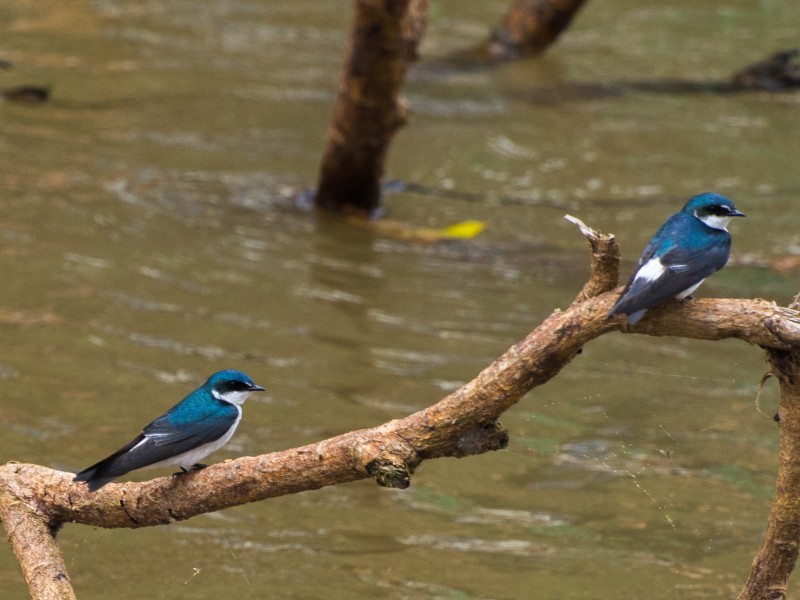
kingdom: Animalia
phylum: Chordata
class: Aves
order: Passeriformes
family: Hirundinidae
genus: Tachycineta
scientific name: Tachycineta albilinea
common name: Mangrove swallow
